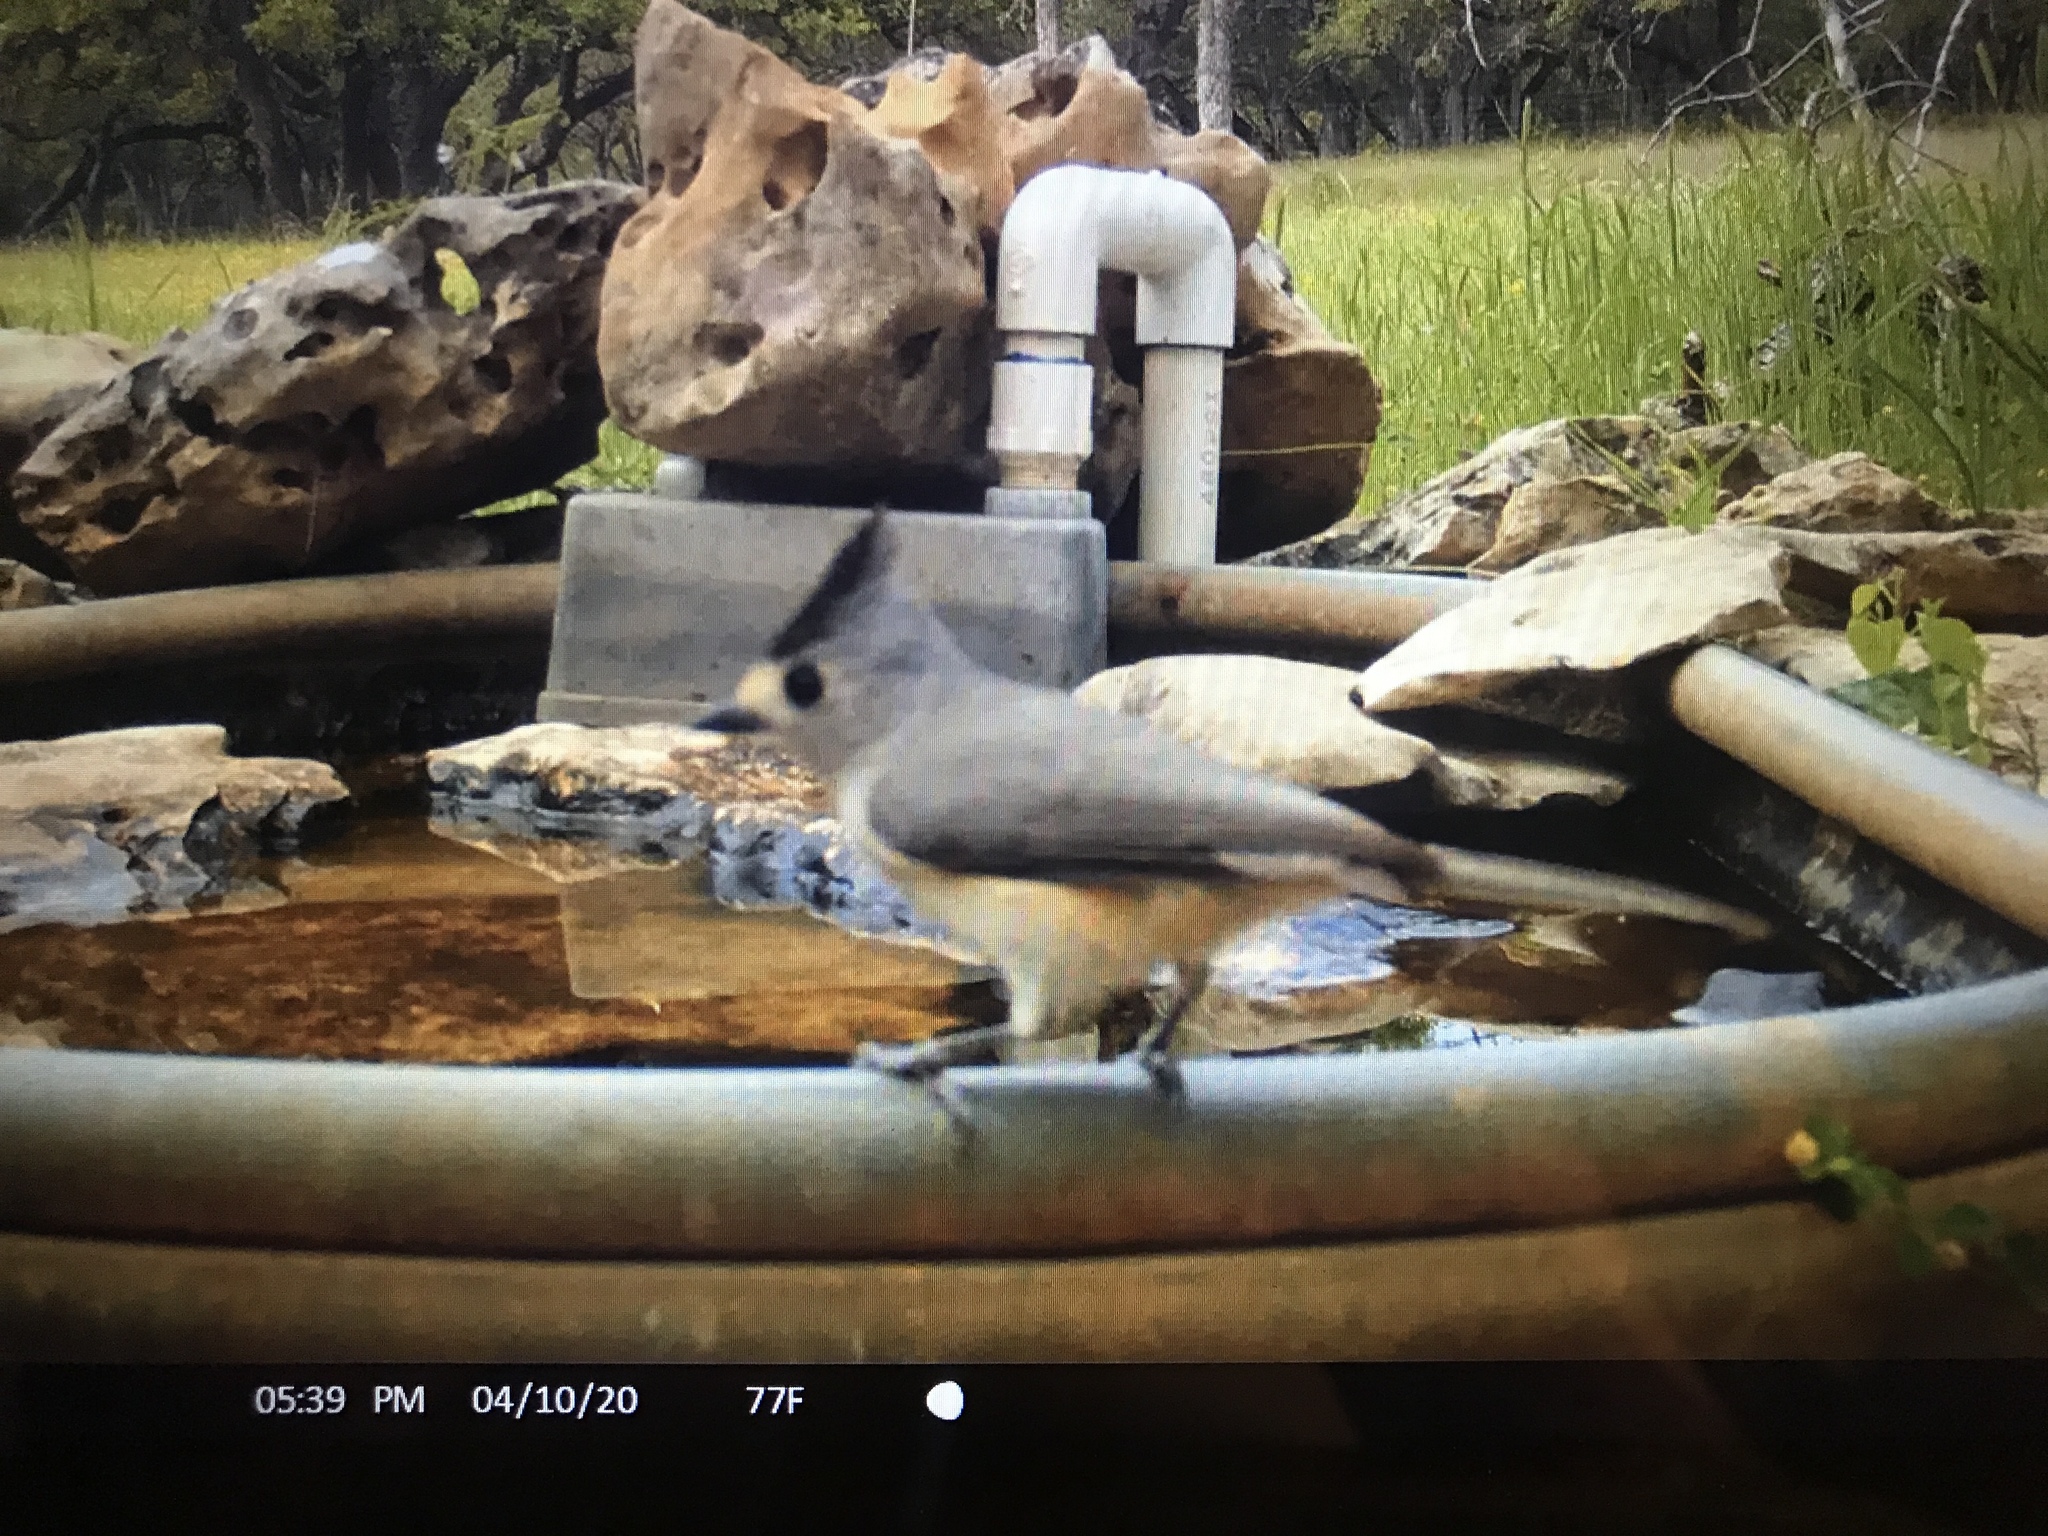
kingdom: Animalia
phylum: Chordata
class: Aves
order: Passeriformes
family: Paridae
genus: Baeolophus
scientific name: Baeolophus atricristatus
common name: Black-crested titmouse
